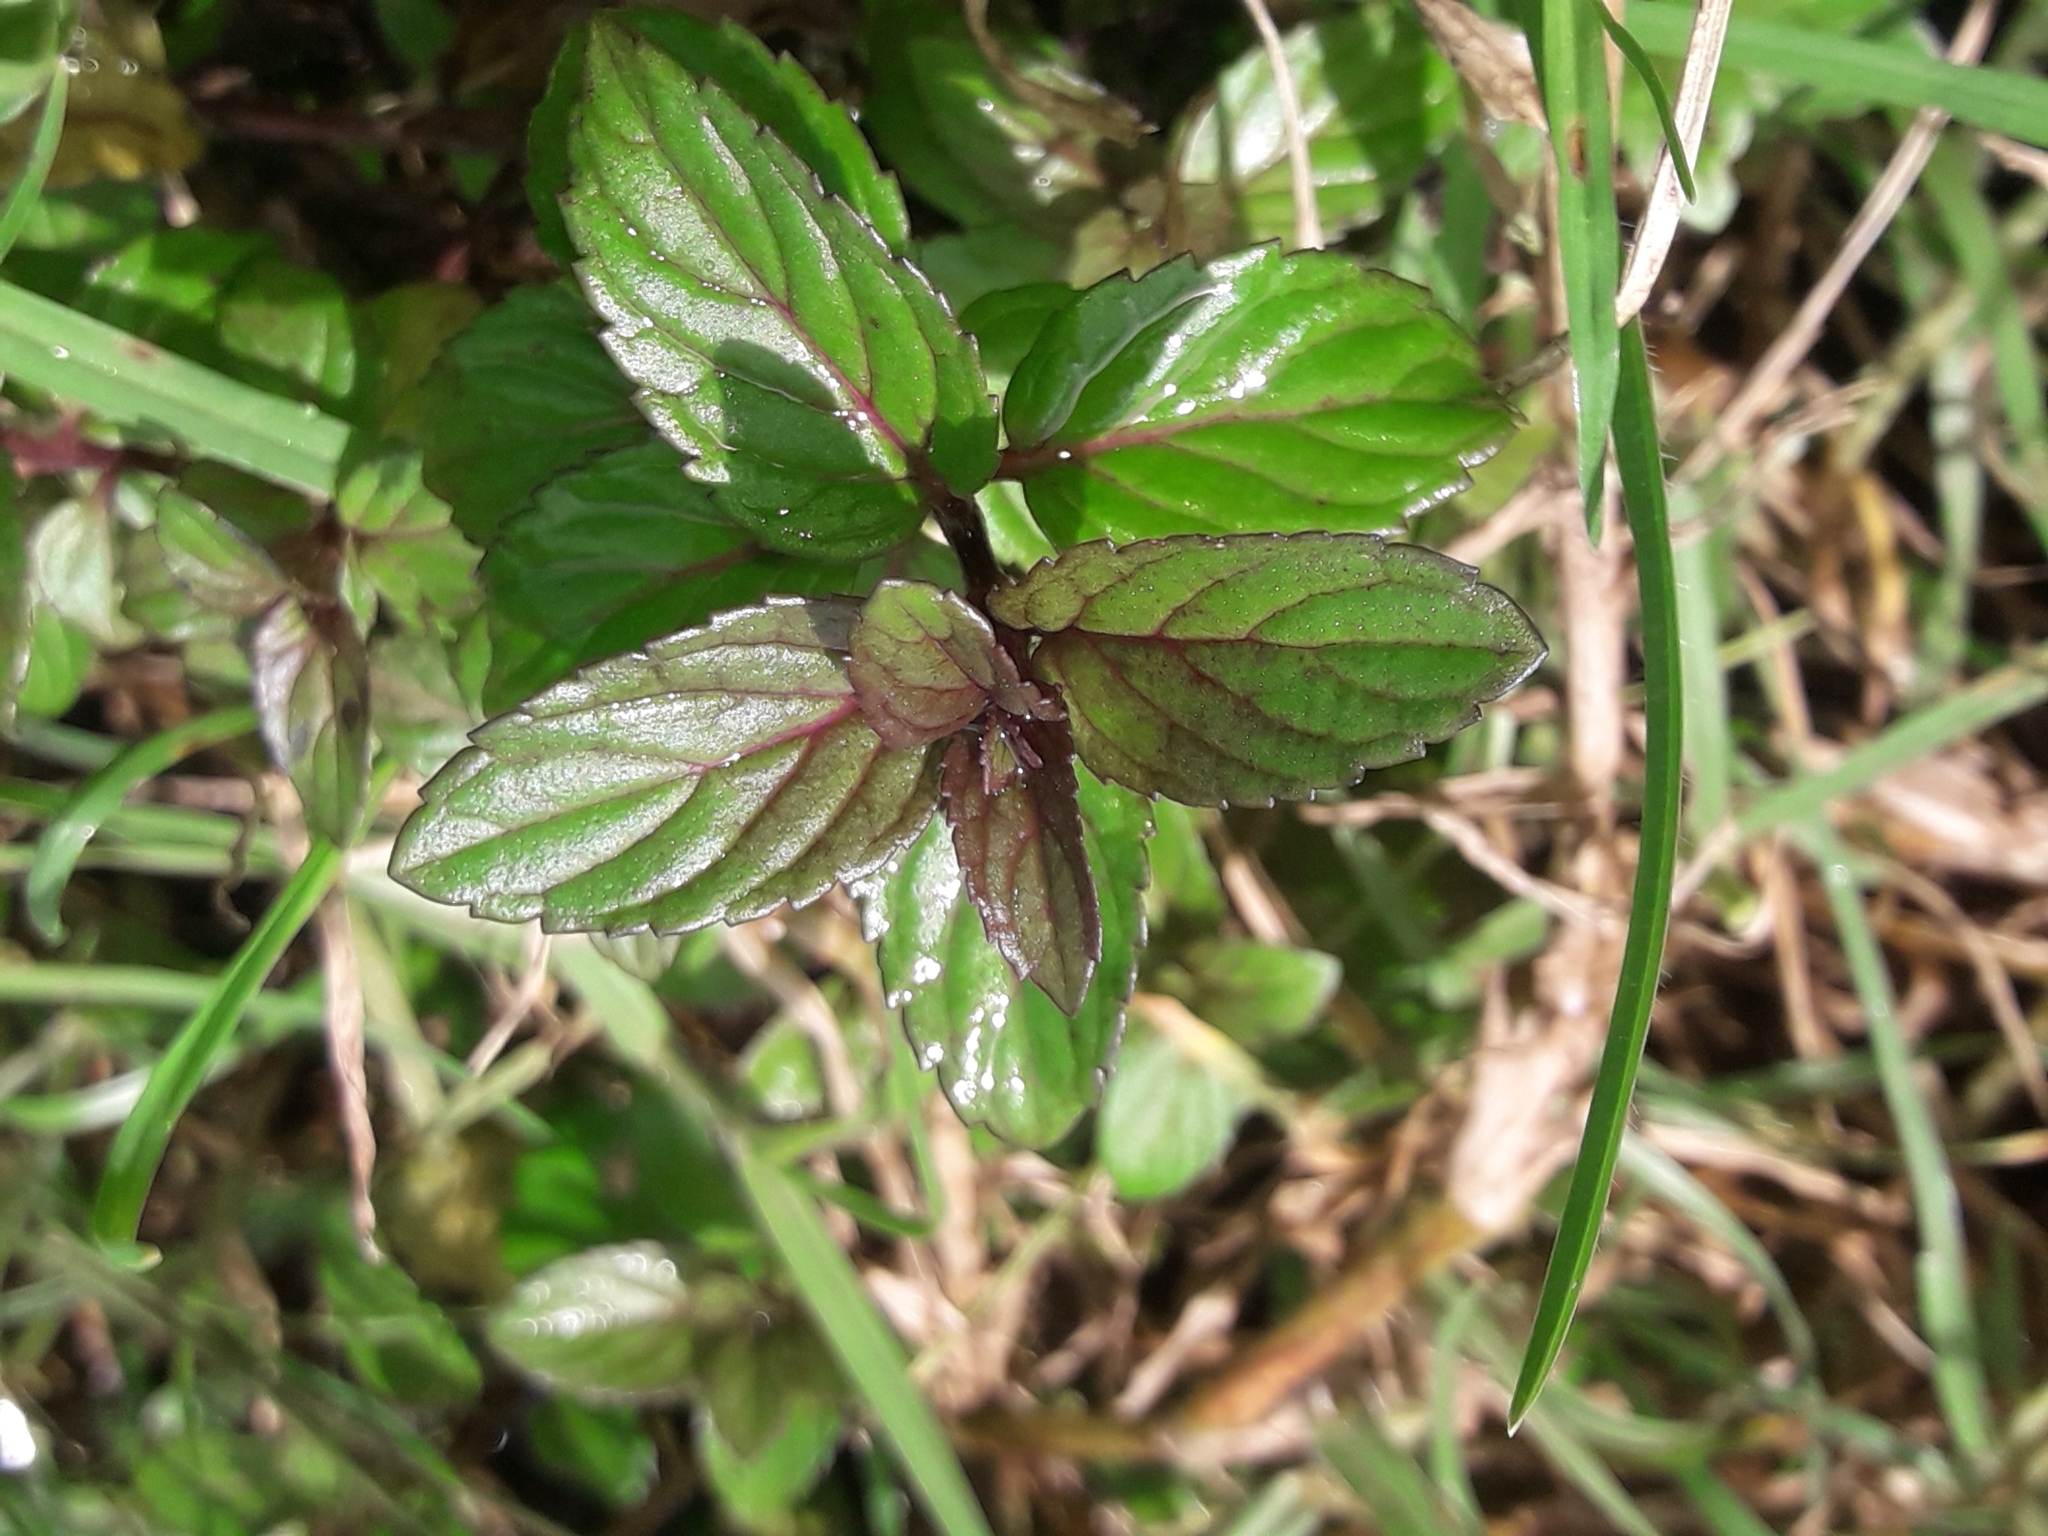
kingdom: Plantae
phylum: Tracheophyta
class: Magnoliopsida
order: Lamiales
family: Lamiaceae
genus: Mentha
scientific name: Mentha piperita
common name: Peppermint
